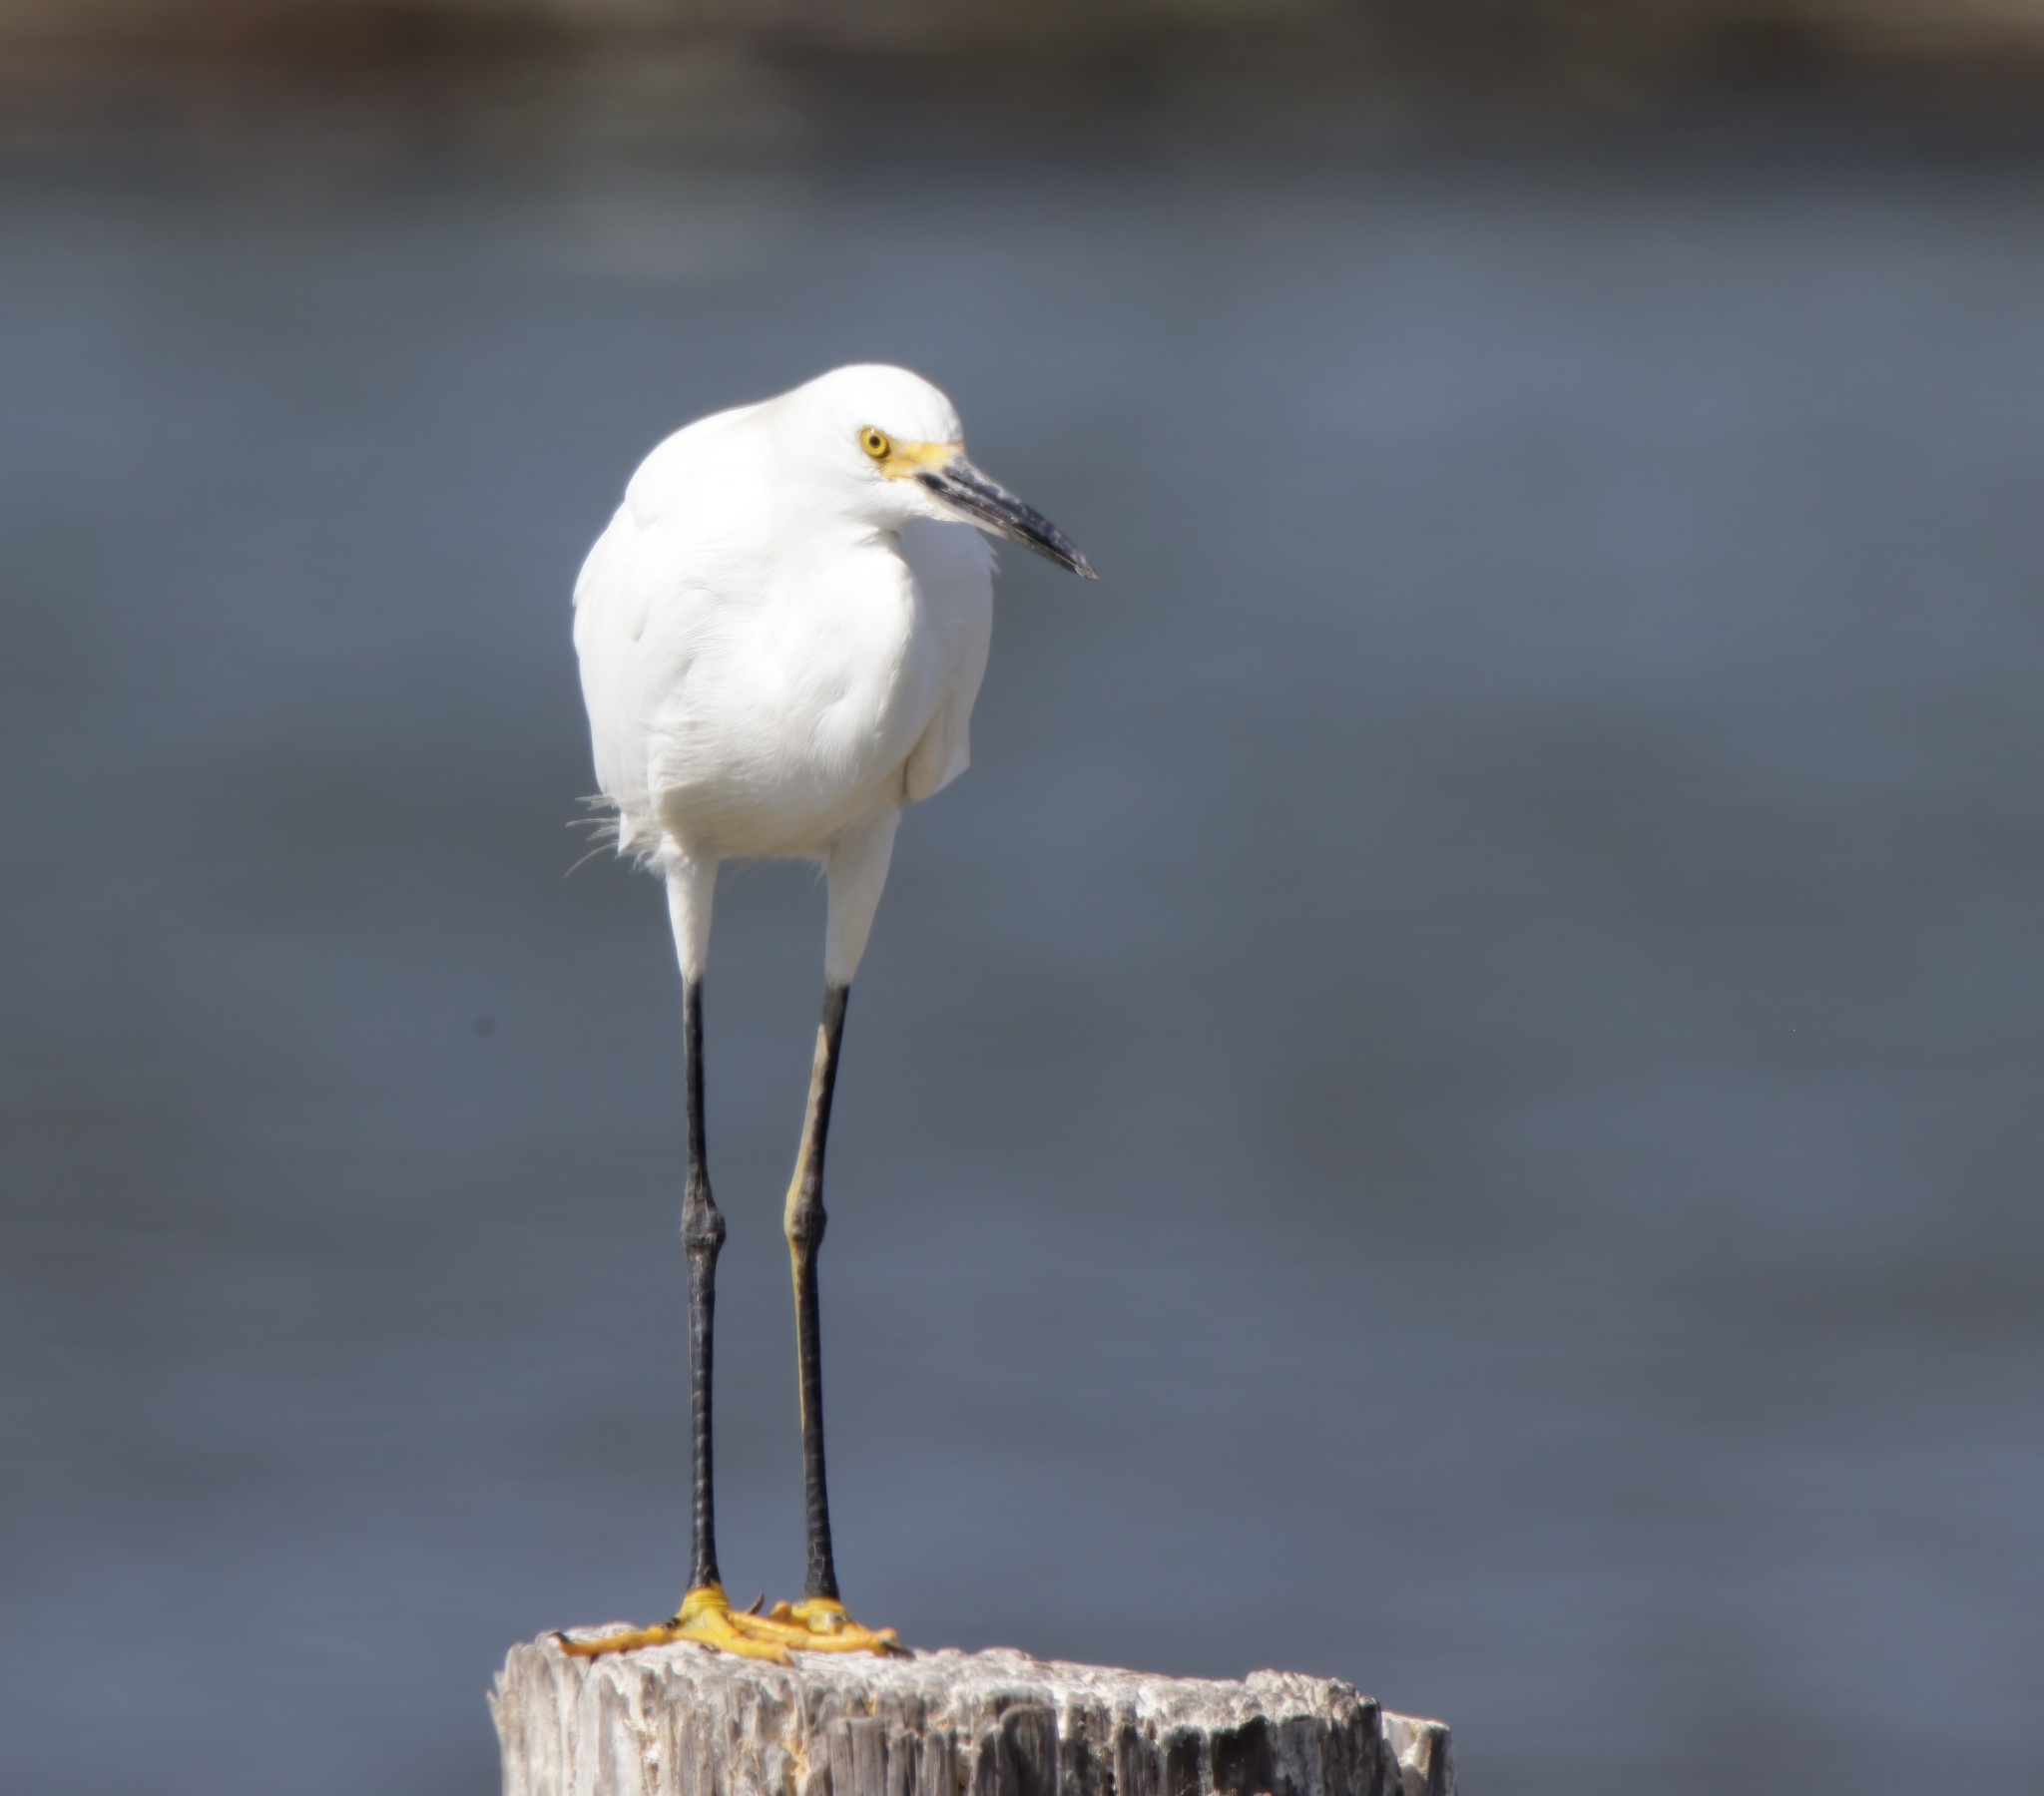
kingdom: Animalia
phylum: Chordata
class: Aves
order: Pelecaniformes
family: Ardeidae
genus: Egretta
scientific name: Egretta thula
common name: Snowy egret
